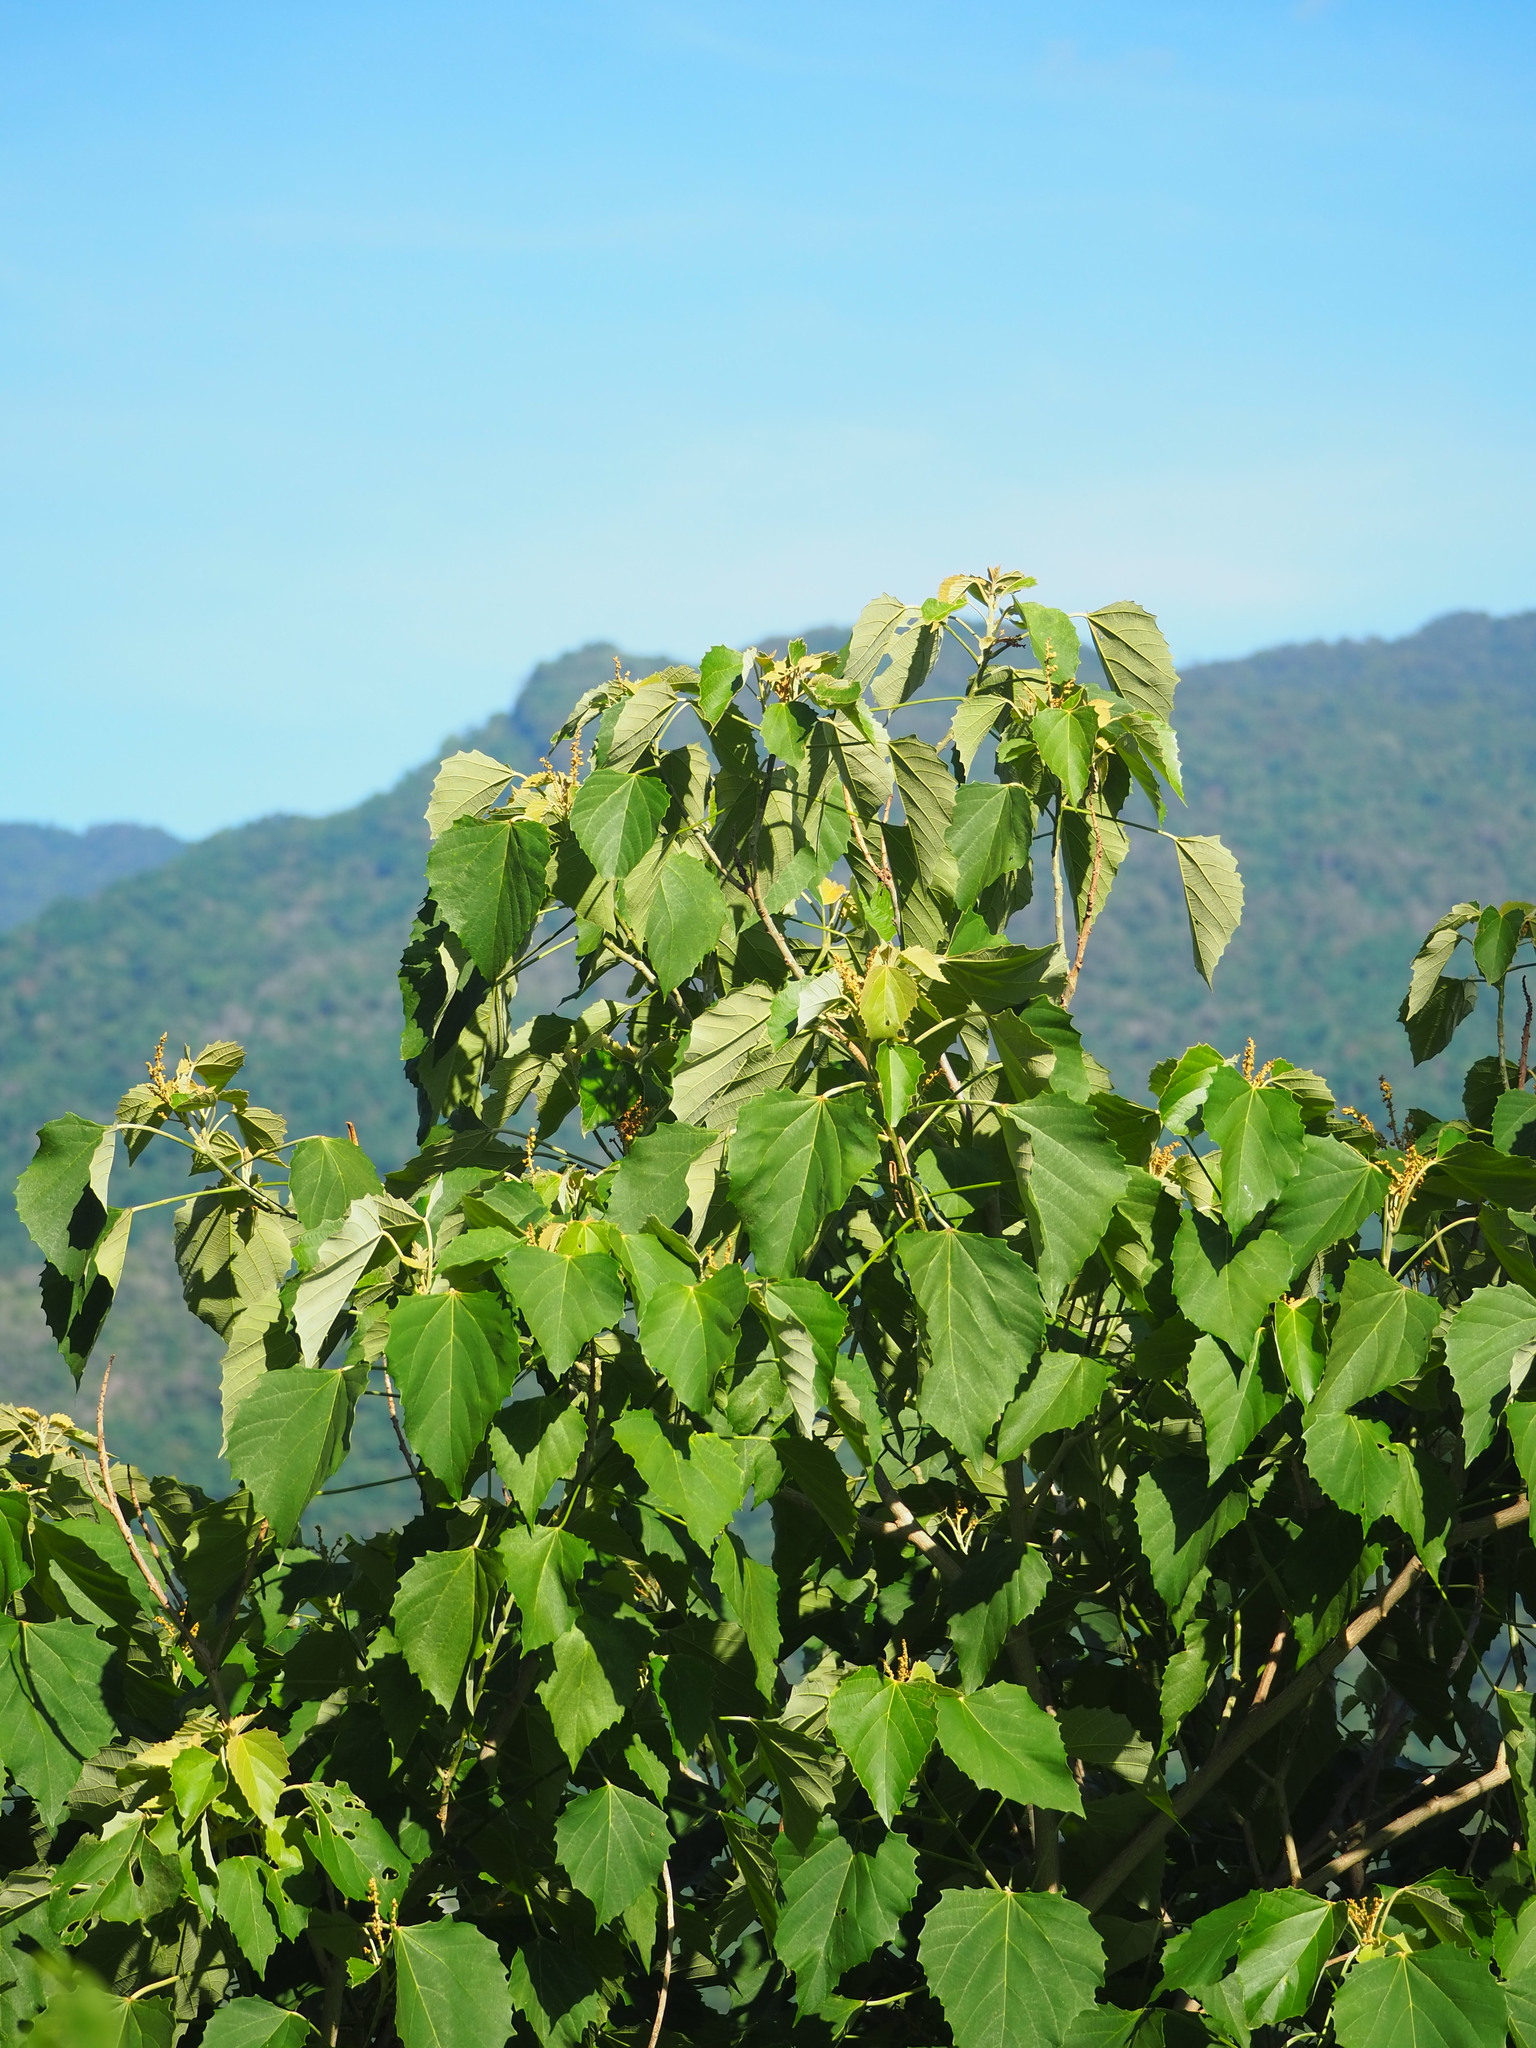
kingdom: Plantae
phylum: Tracheophyta
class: Magnoliopsida
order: Malpighiales
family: Euphorbiaceae
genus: Melanolepis
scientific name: Melanolepis multiglandulosa
